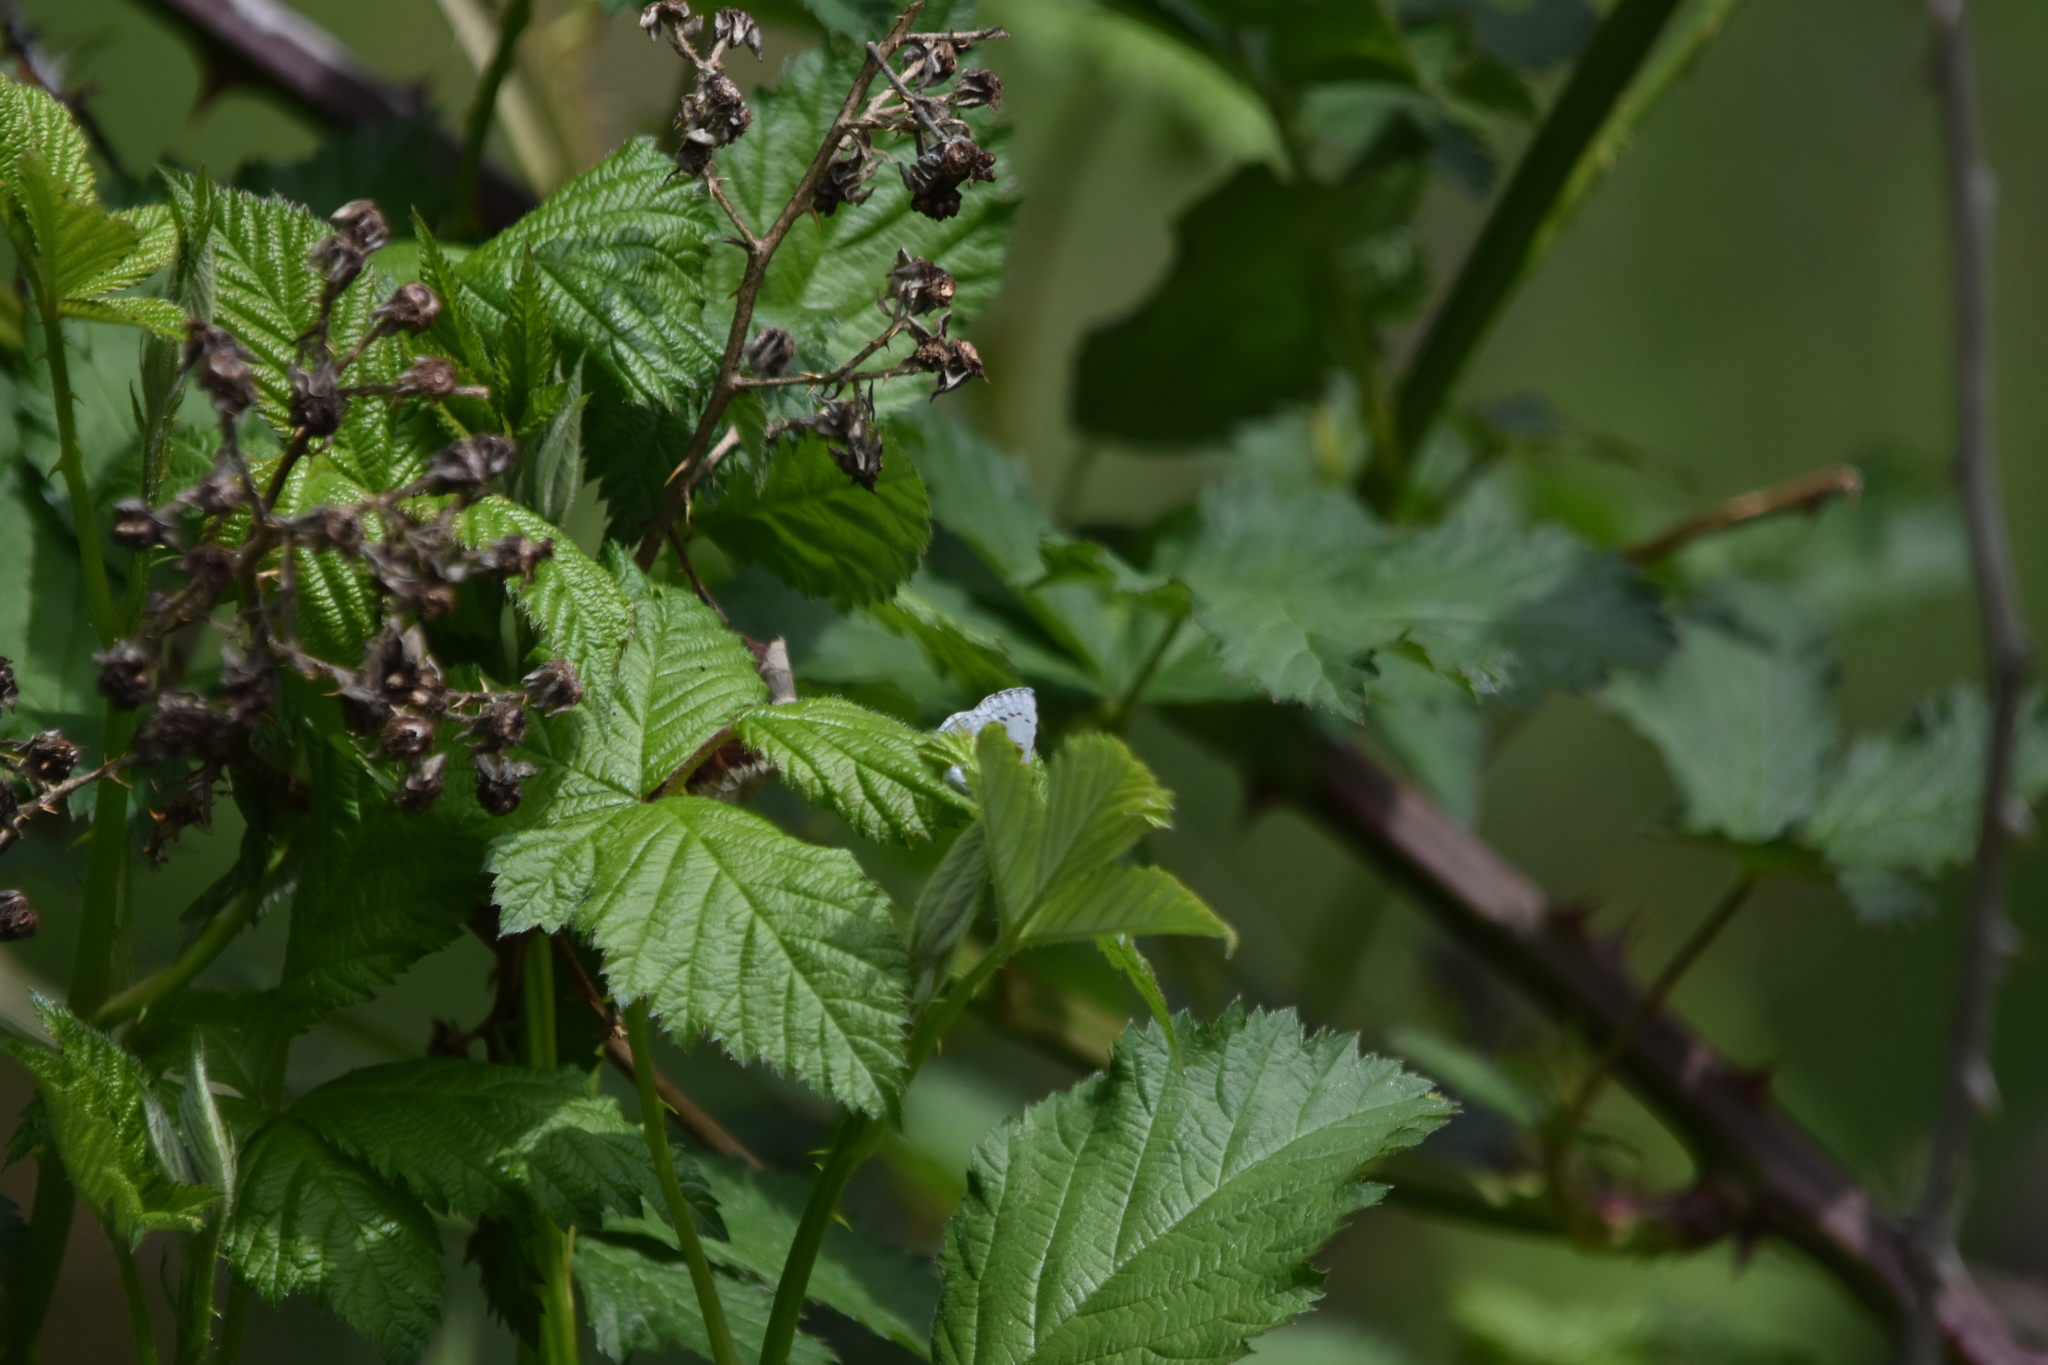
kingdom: Animalia
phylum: Arthropoda
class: Insecta
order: Lepidoptera
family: Lycaenidae
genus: Celastrina
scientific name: Celastrina ladon
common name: Spring azure
